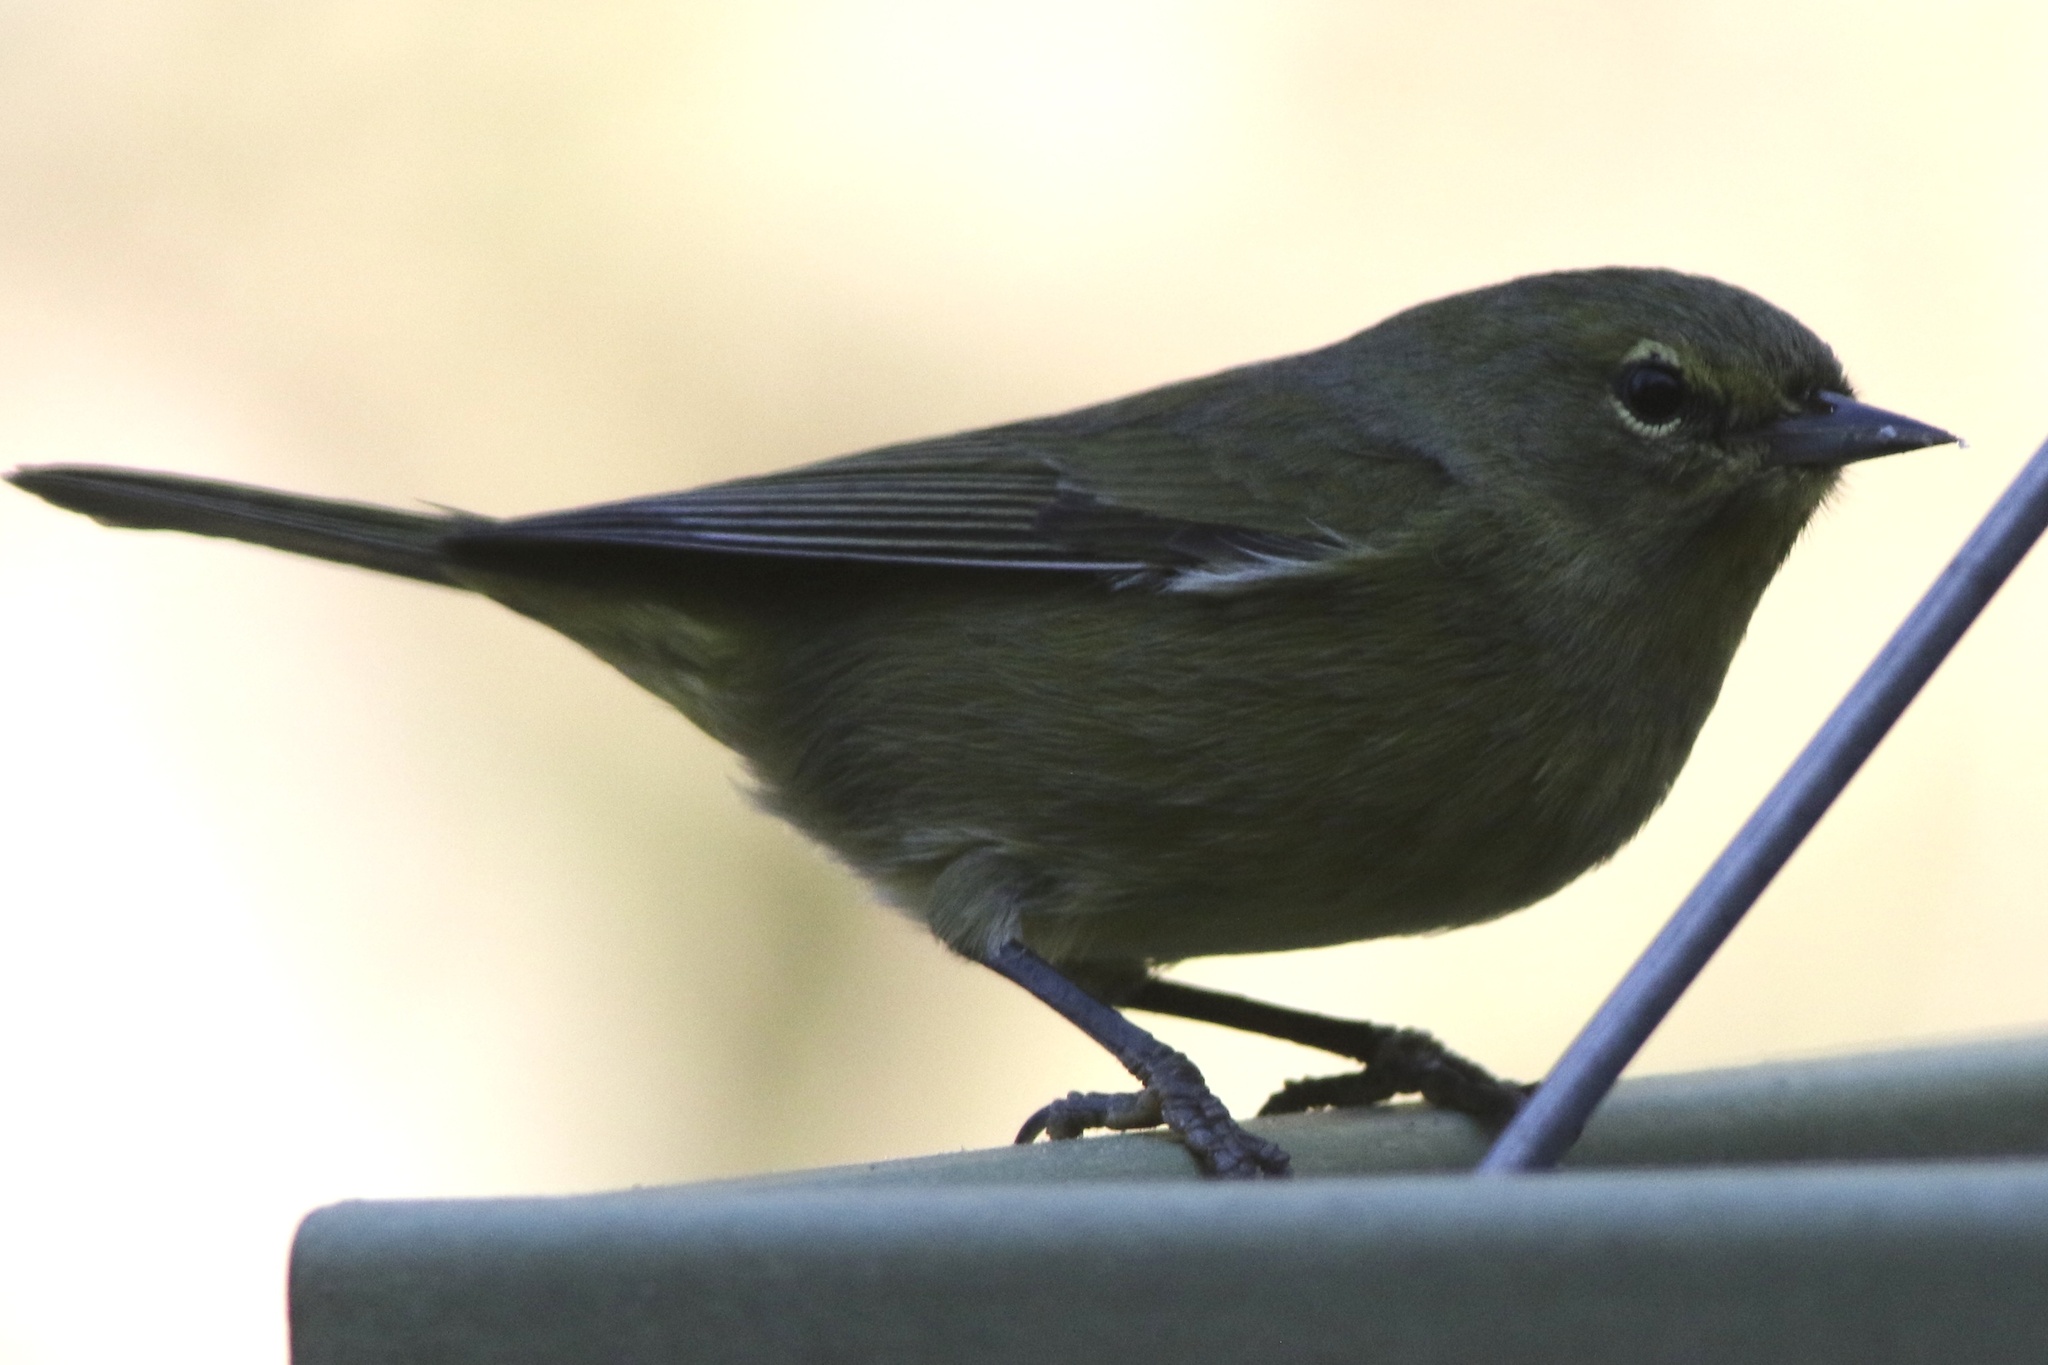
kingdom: Animalia
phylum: Chordata
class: Aves
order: Passeriformes
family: Parulidae
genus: Leiothlypis
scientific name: Leiothlypis celata
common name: Orange-crowned warbler
